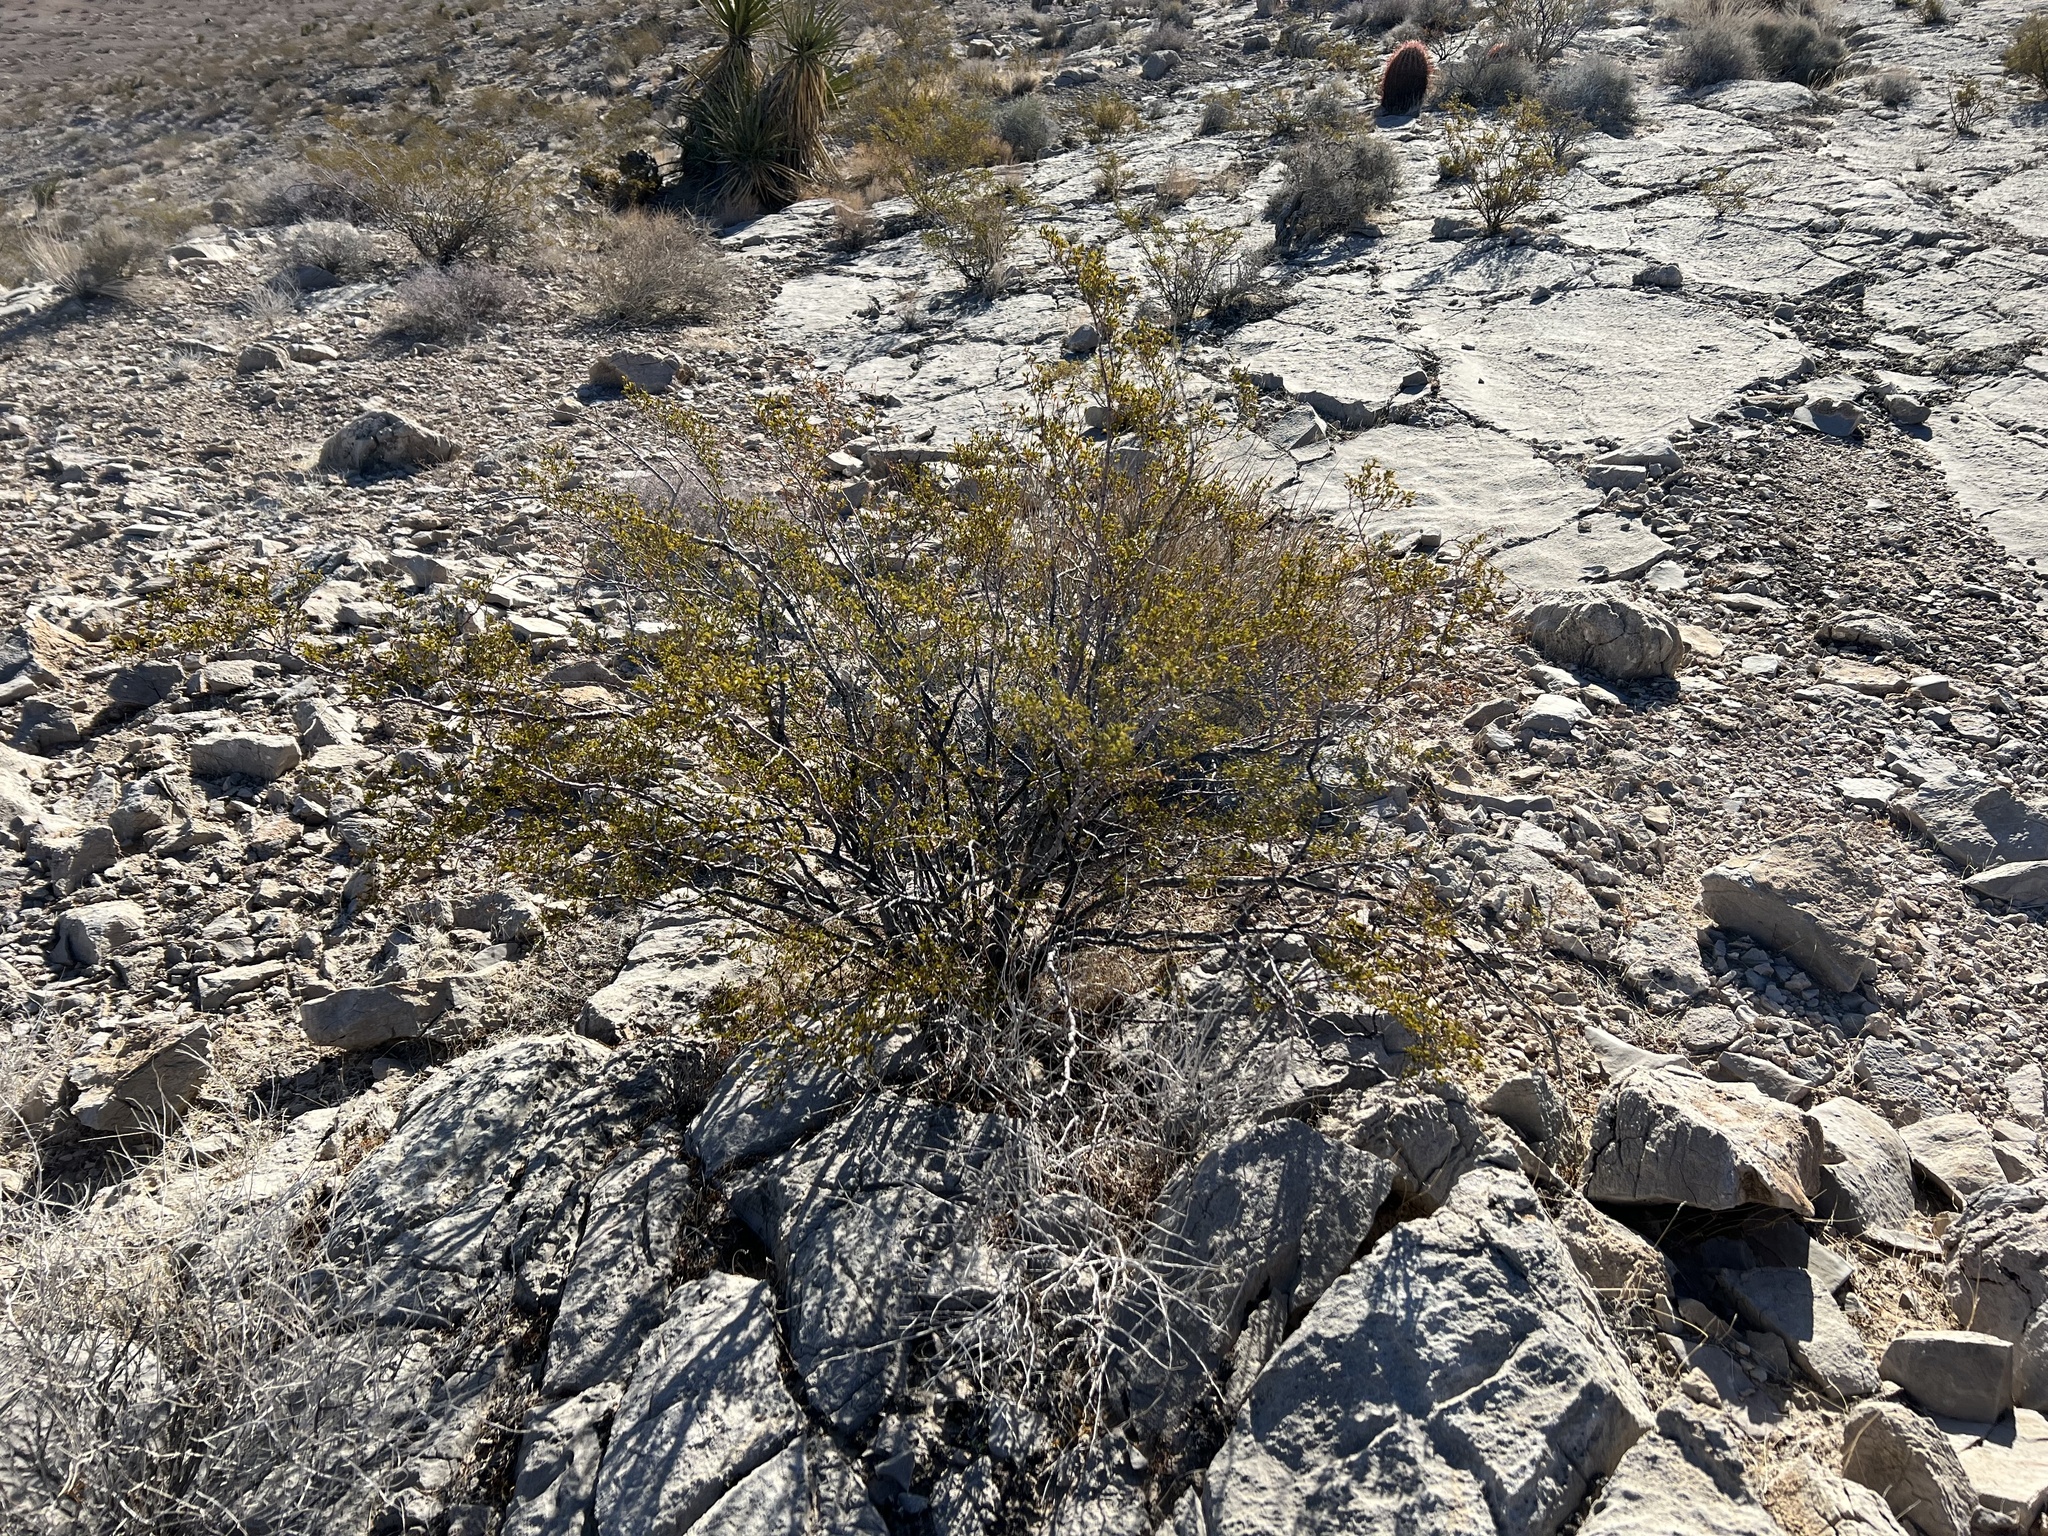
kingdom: Plantae
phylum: Tracheophyta
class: Magnoliopsida
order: Zygophyllales
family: Zygophyllaceae
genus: Larrea
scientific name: Larrea tridentata
